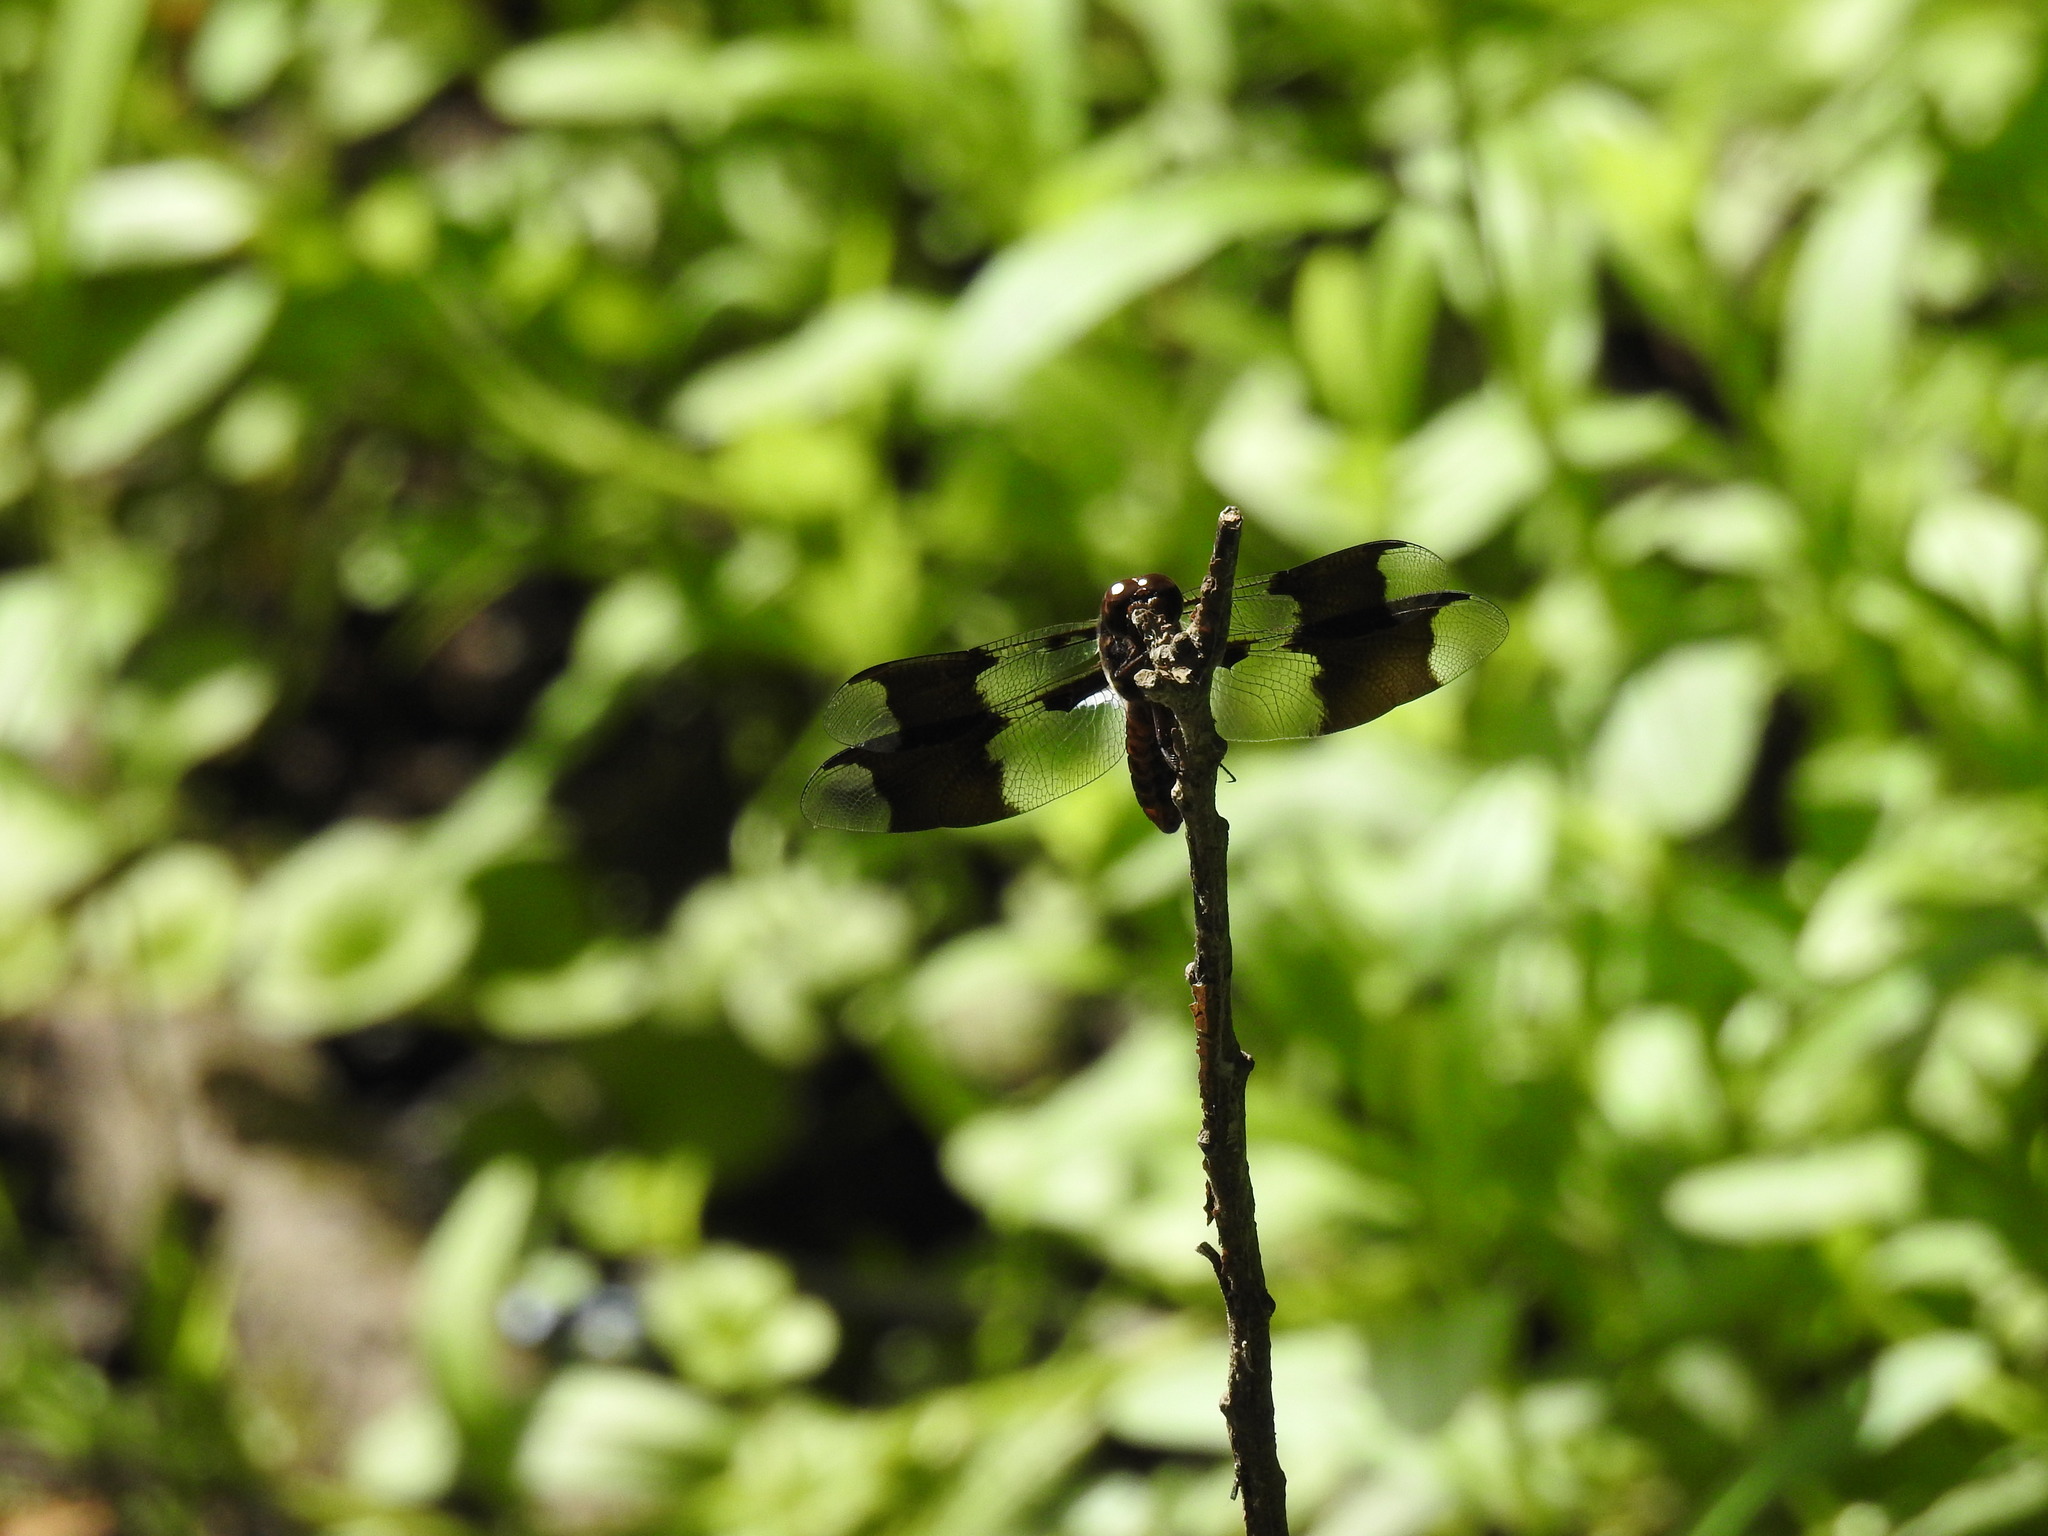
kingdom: Animalia
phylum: Arthropoda
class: Insecta
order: Odonata
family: Libellulidae
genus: Plathemis
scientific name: Plathemis lydia
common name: Common whitetail
